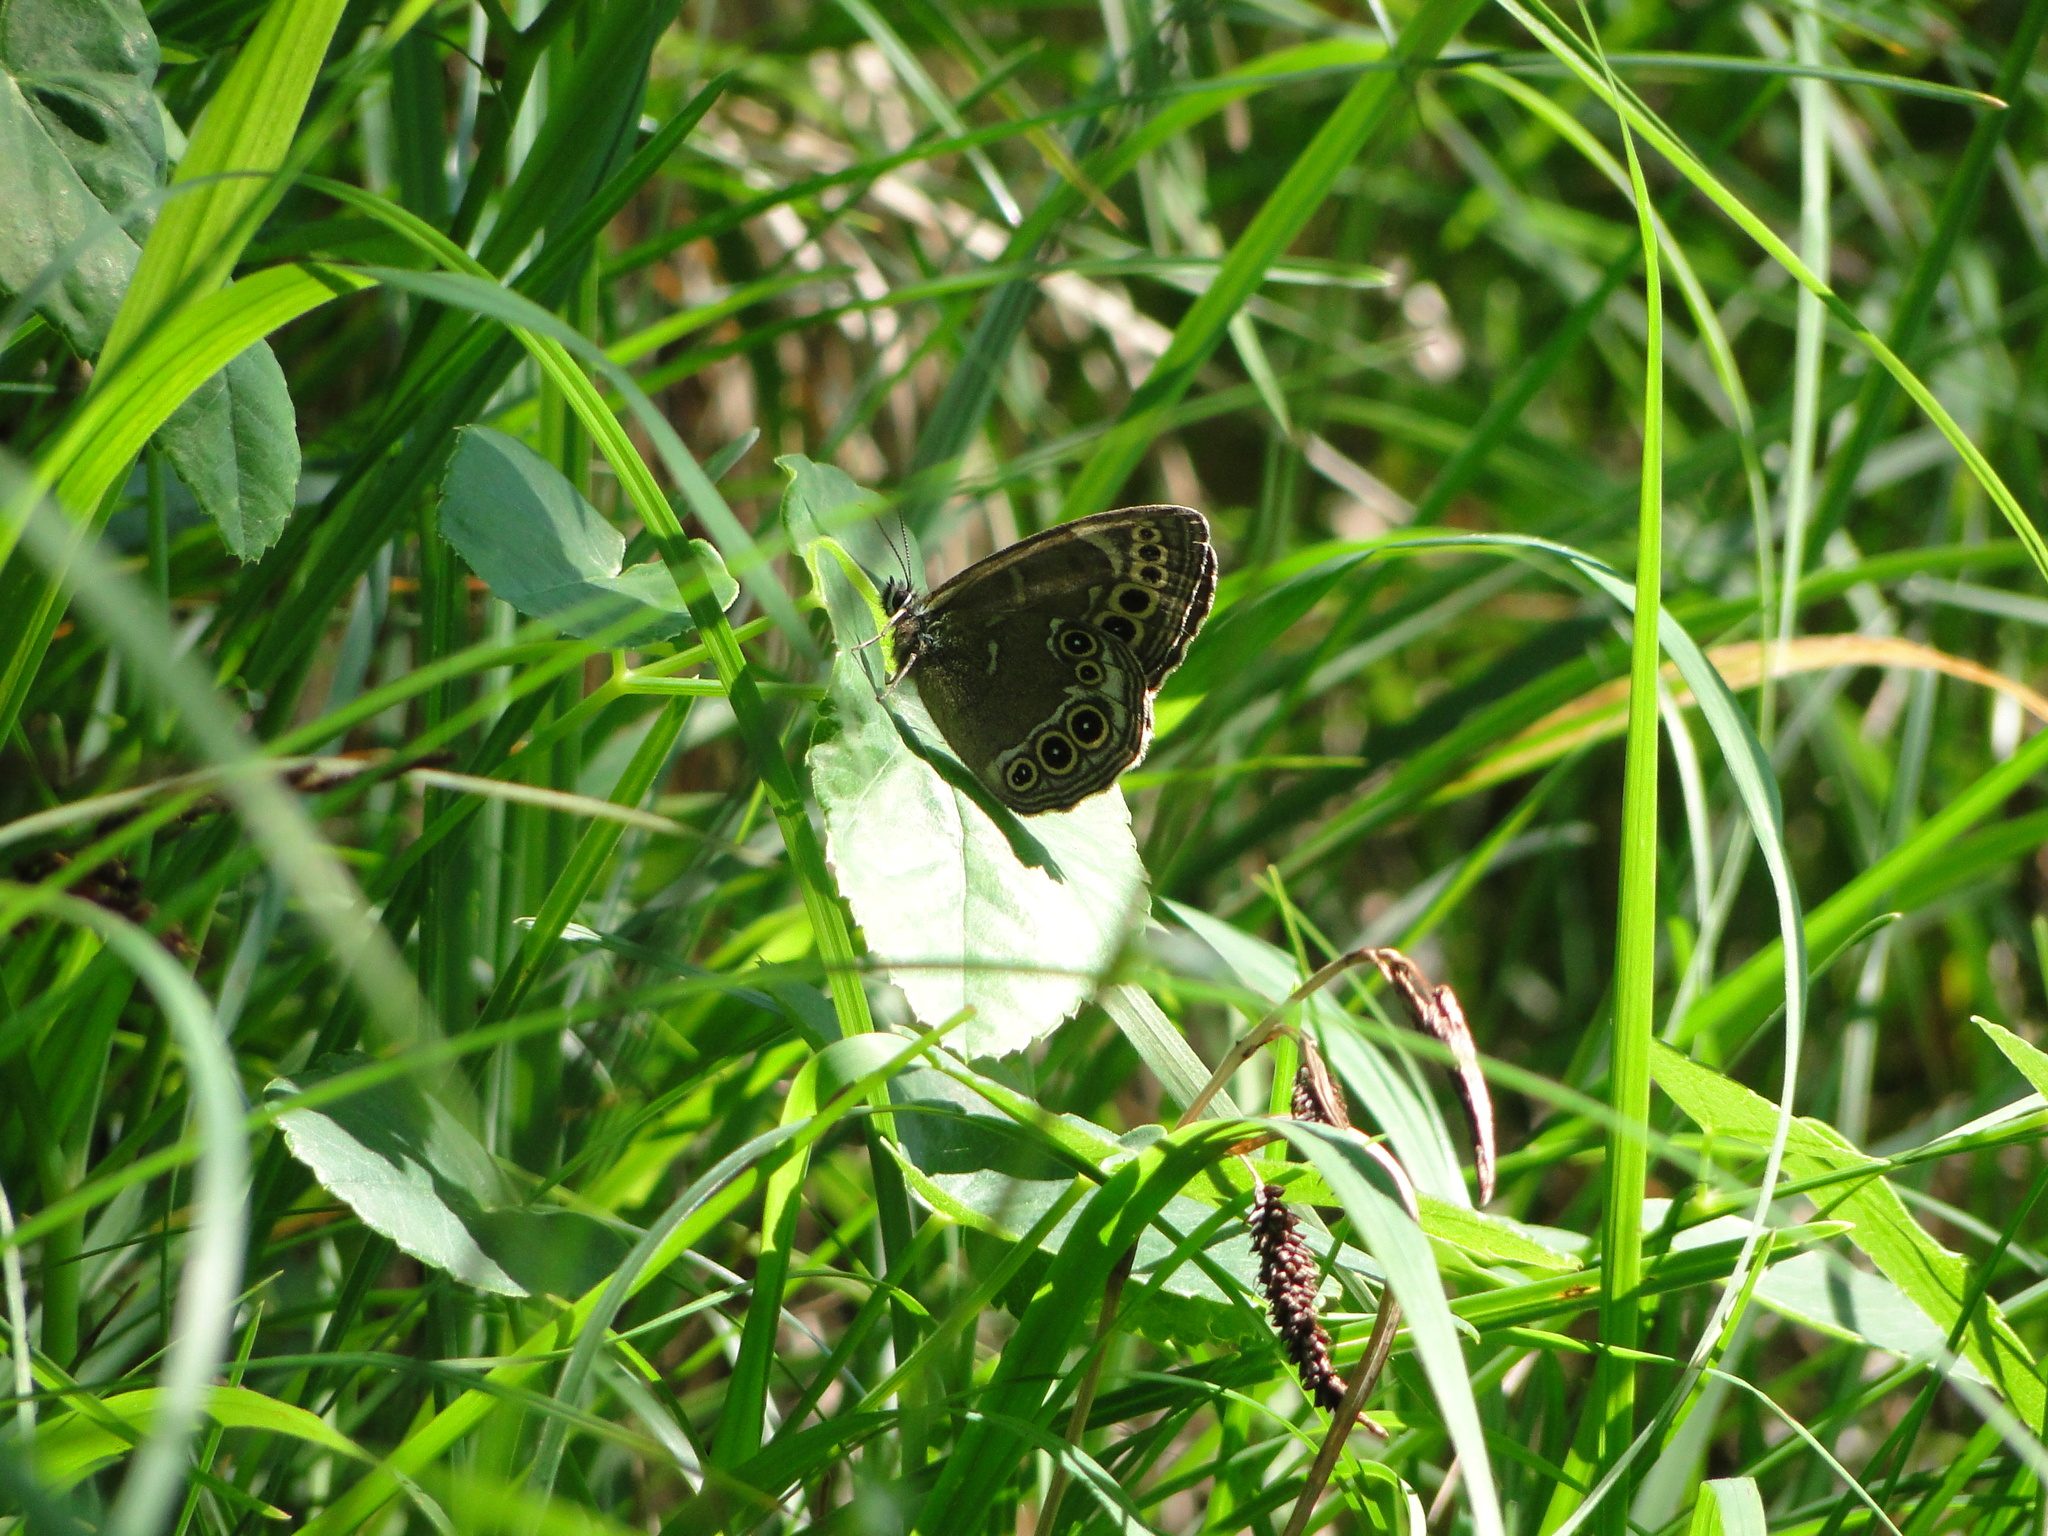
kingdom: Animalia
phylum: Arthropoda
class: Insecta
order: Lepidoptera
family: Nymphalidae
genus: Pararge
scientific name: Pararge Lopinga achine
